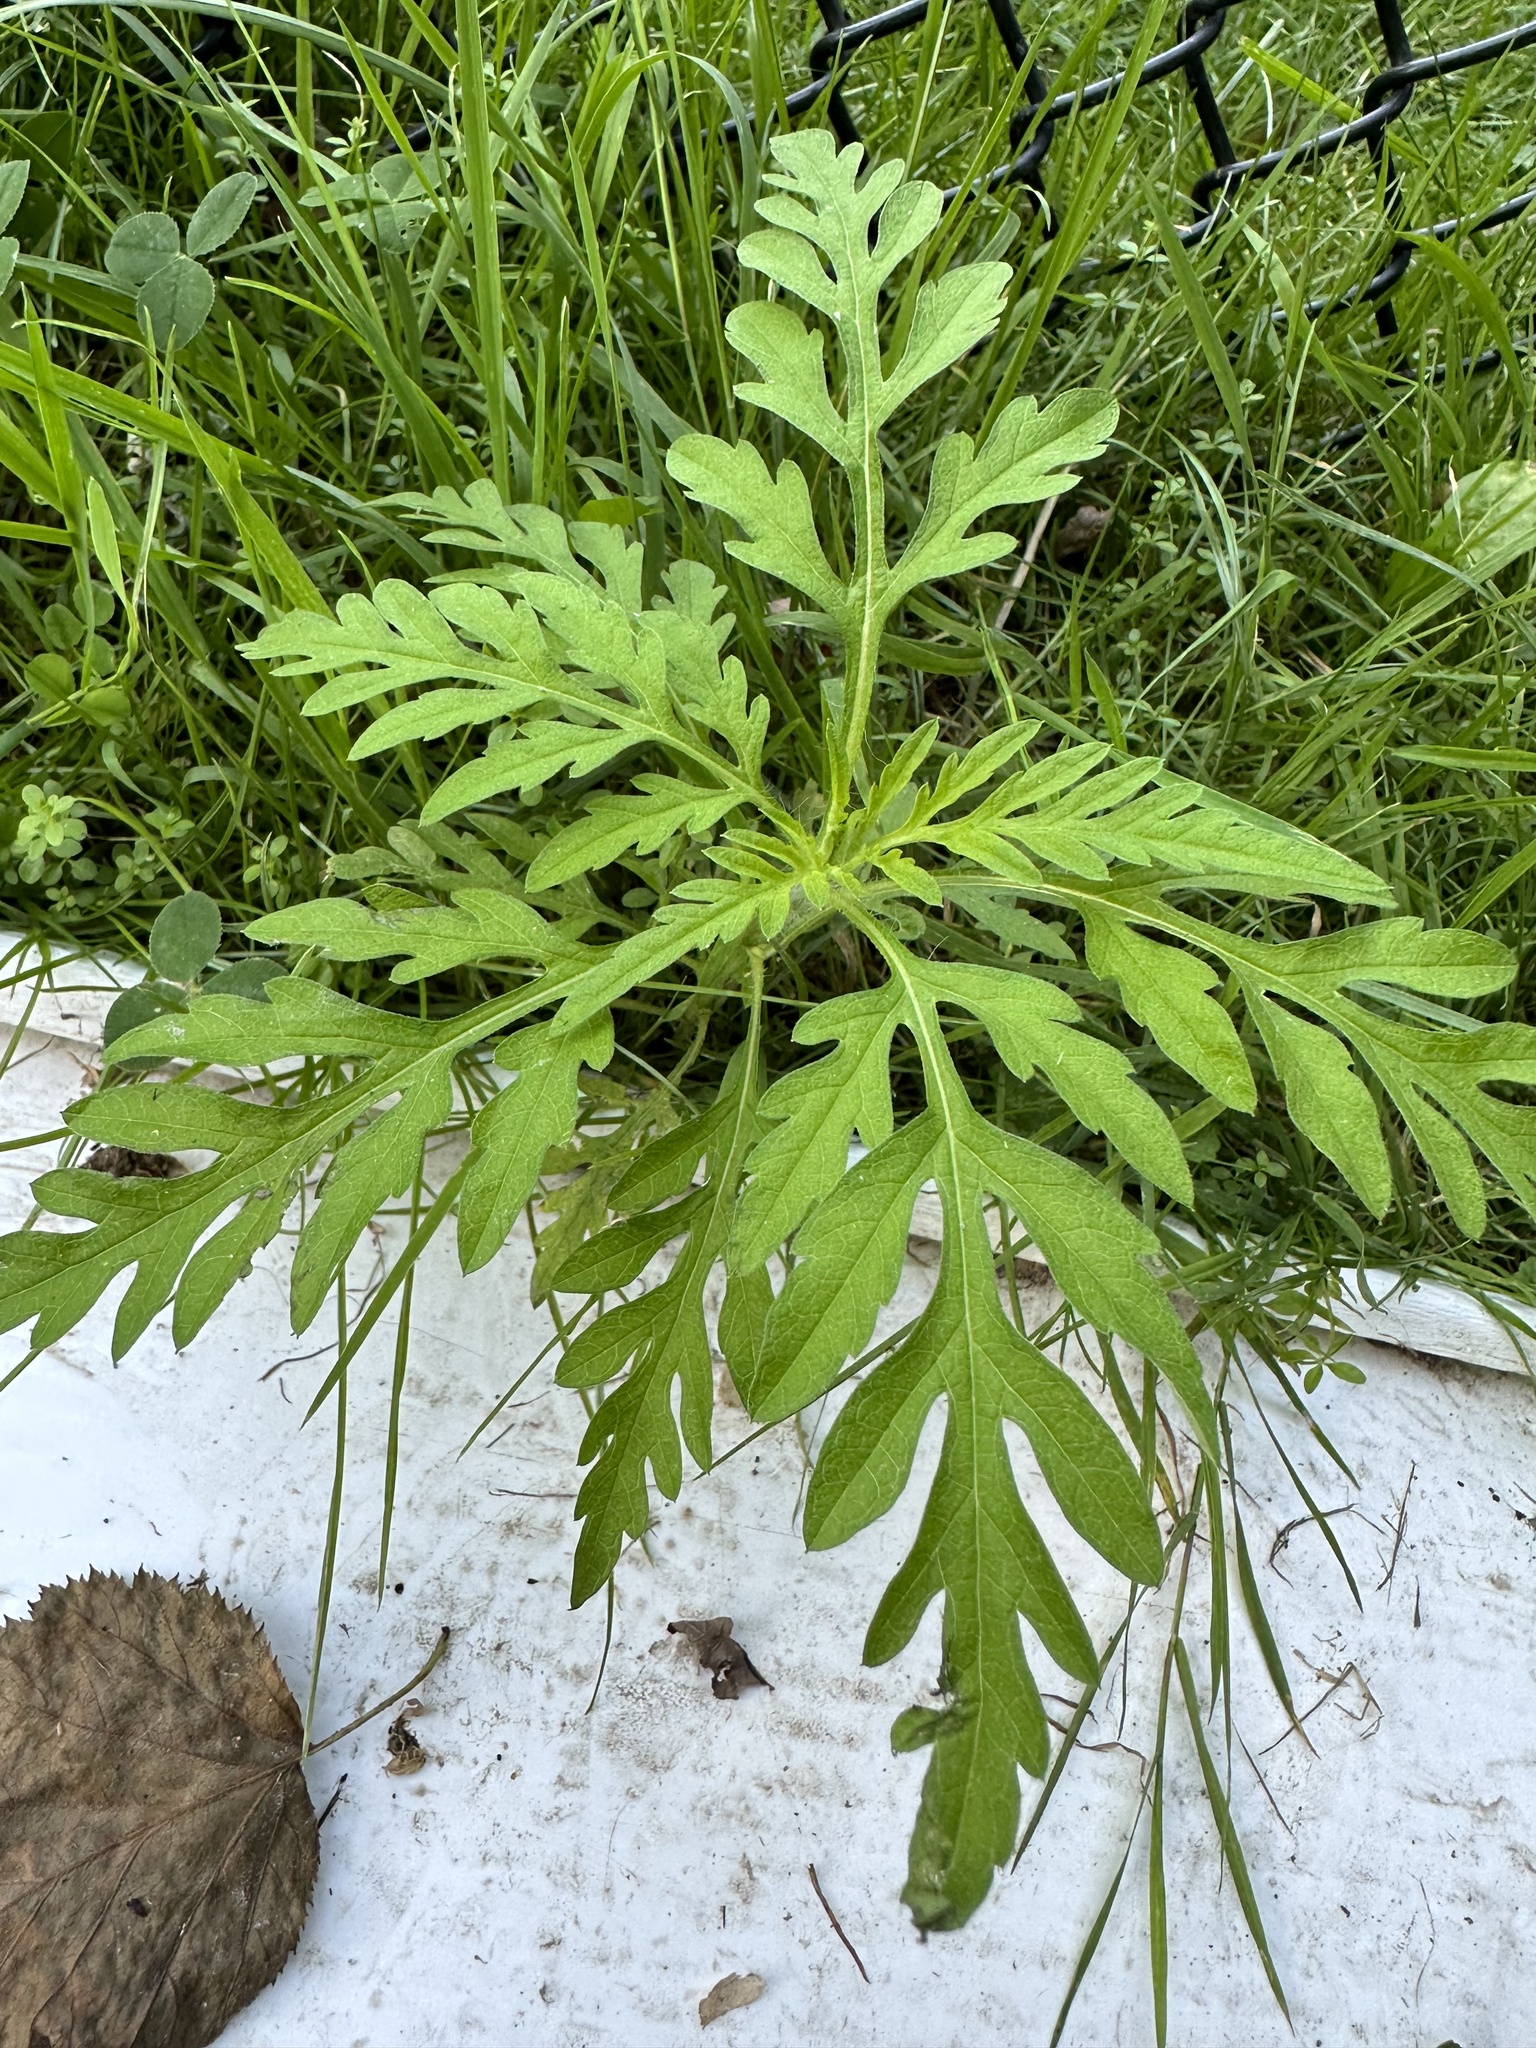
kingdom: Plantae
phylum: Tracheophyta
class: Magnoliopsida
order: Asterales
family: Asteraceae
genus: Ambrosia
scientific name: Ambrosia artemisiifolia
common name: Annual ragweed
